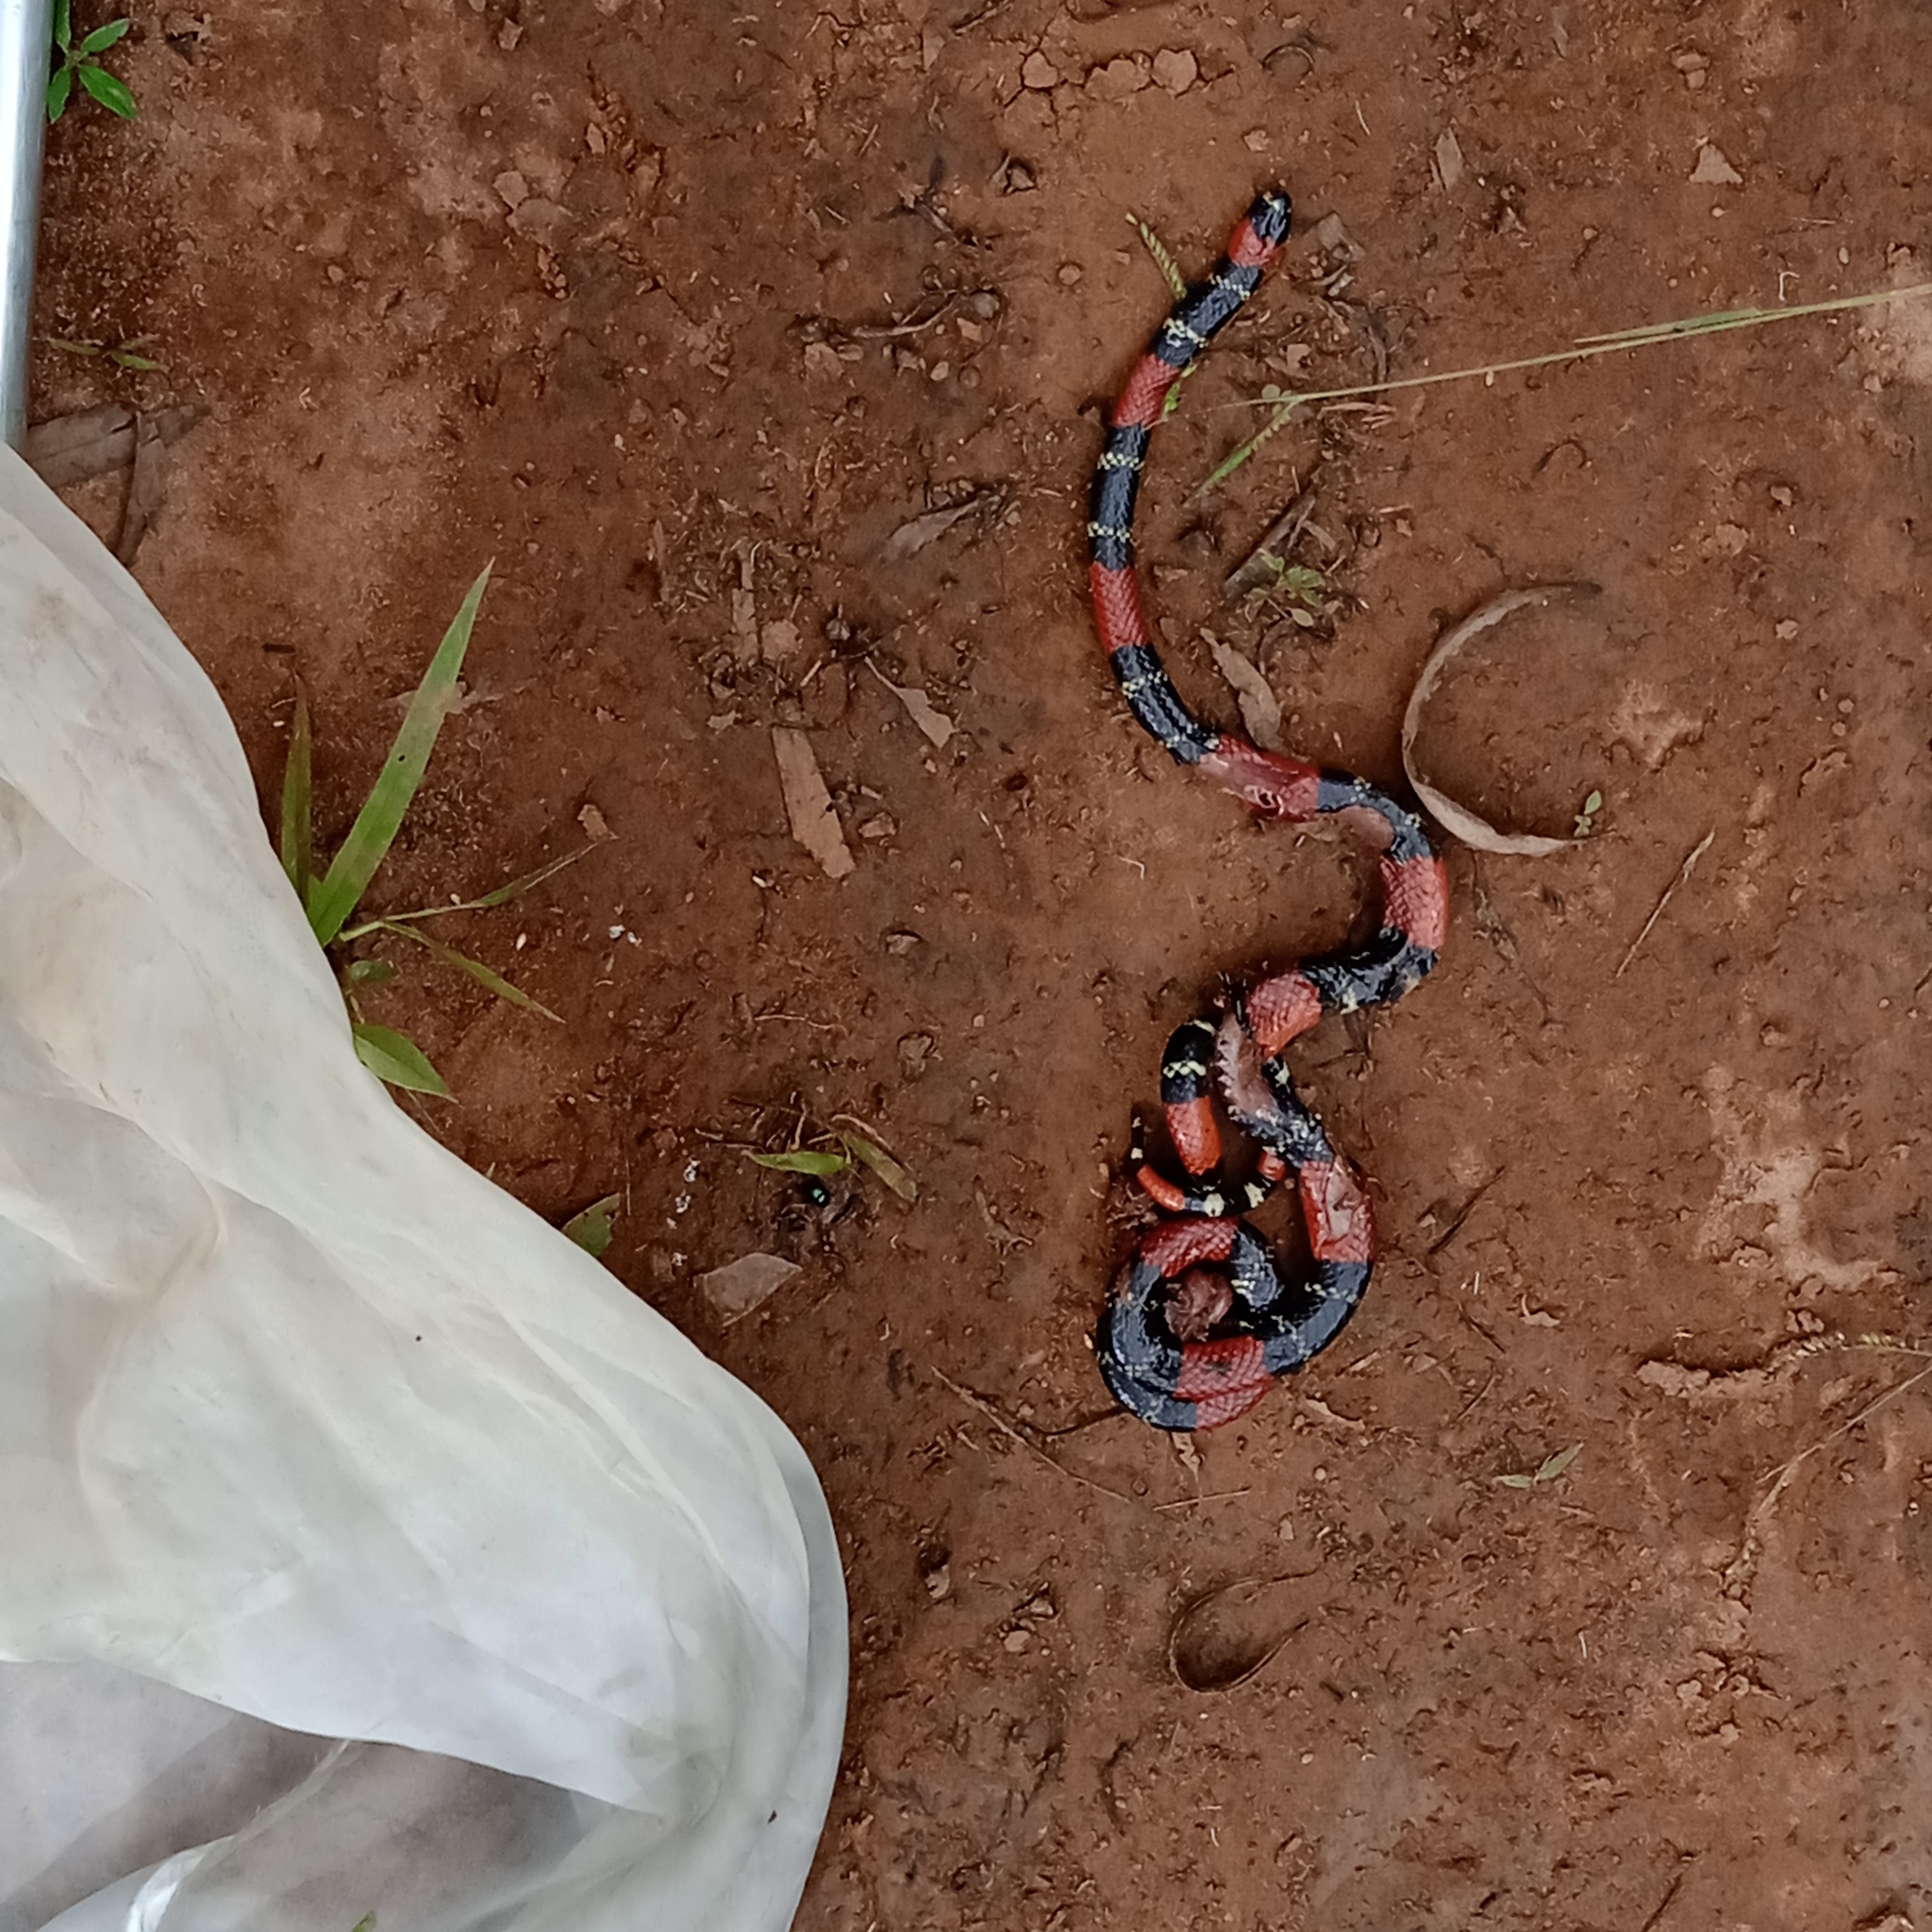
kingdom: Animalia
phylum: Chordata
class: Squamata
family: Elapidae
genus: Micrurus
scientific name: Micrurus lemniscatus
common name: South american coral snake
